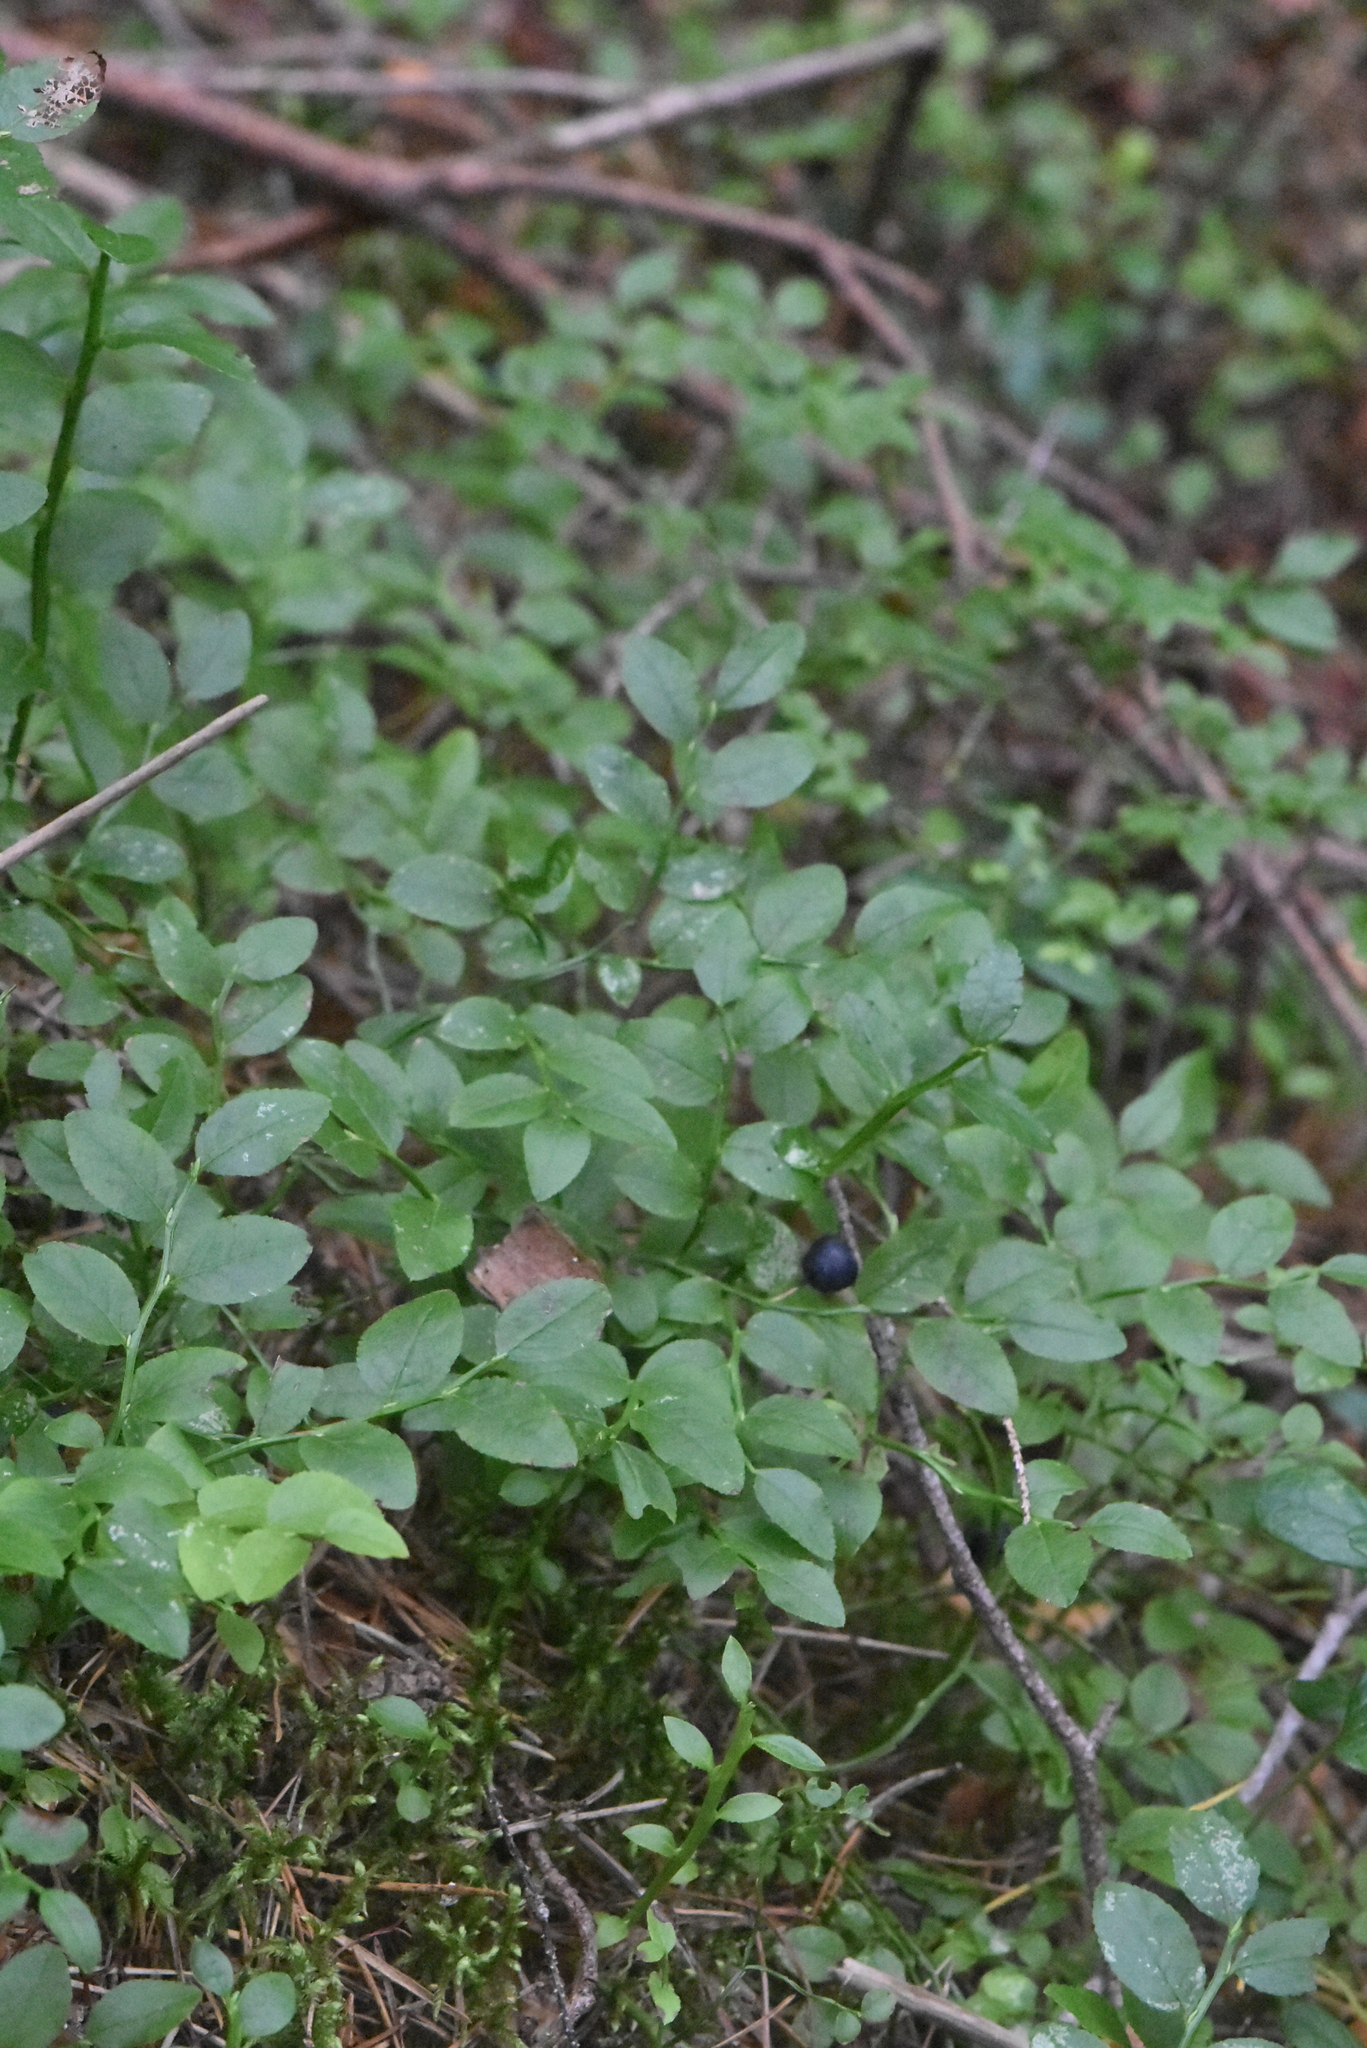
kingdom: Plantae
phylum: Tracheophyta
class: Magnoliopsida
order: Ericales
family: Ericaceae
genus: Vaccinium
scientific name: Vaccinium myrtillus
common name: Bilberry
